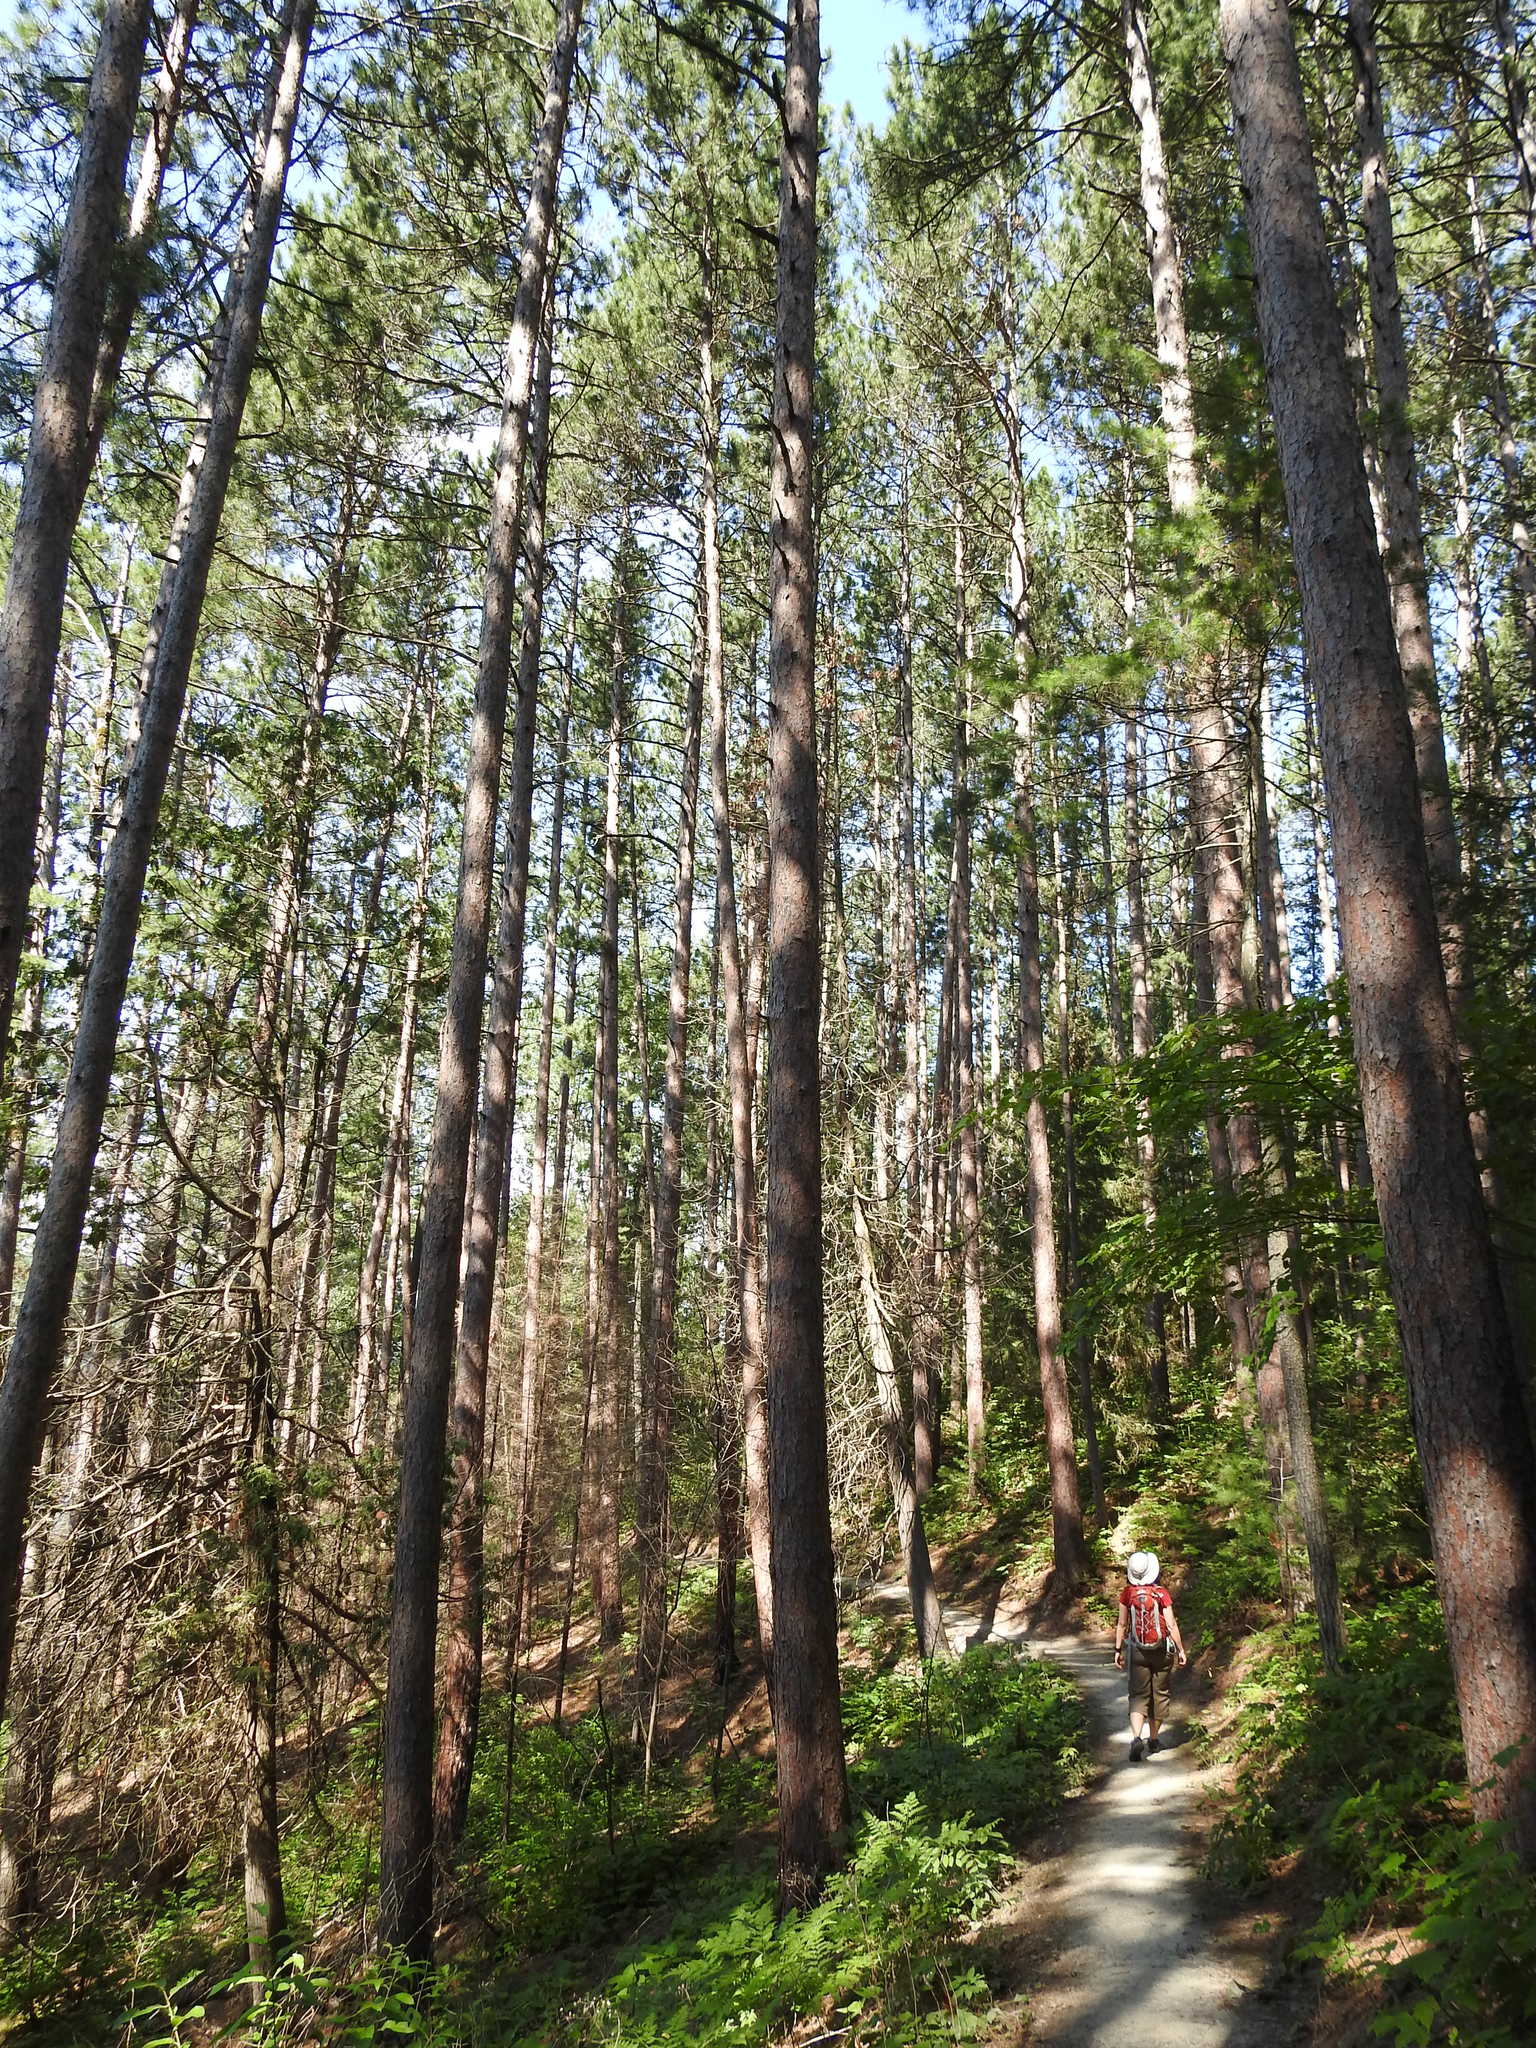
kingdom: Plantae
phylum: Tracheophyta
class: Pinopsida
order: Pinales
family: Pinaceae
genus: Pinus
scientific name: Pinus resinosa
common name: Norway pine
